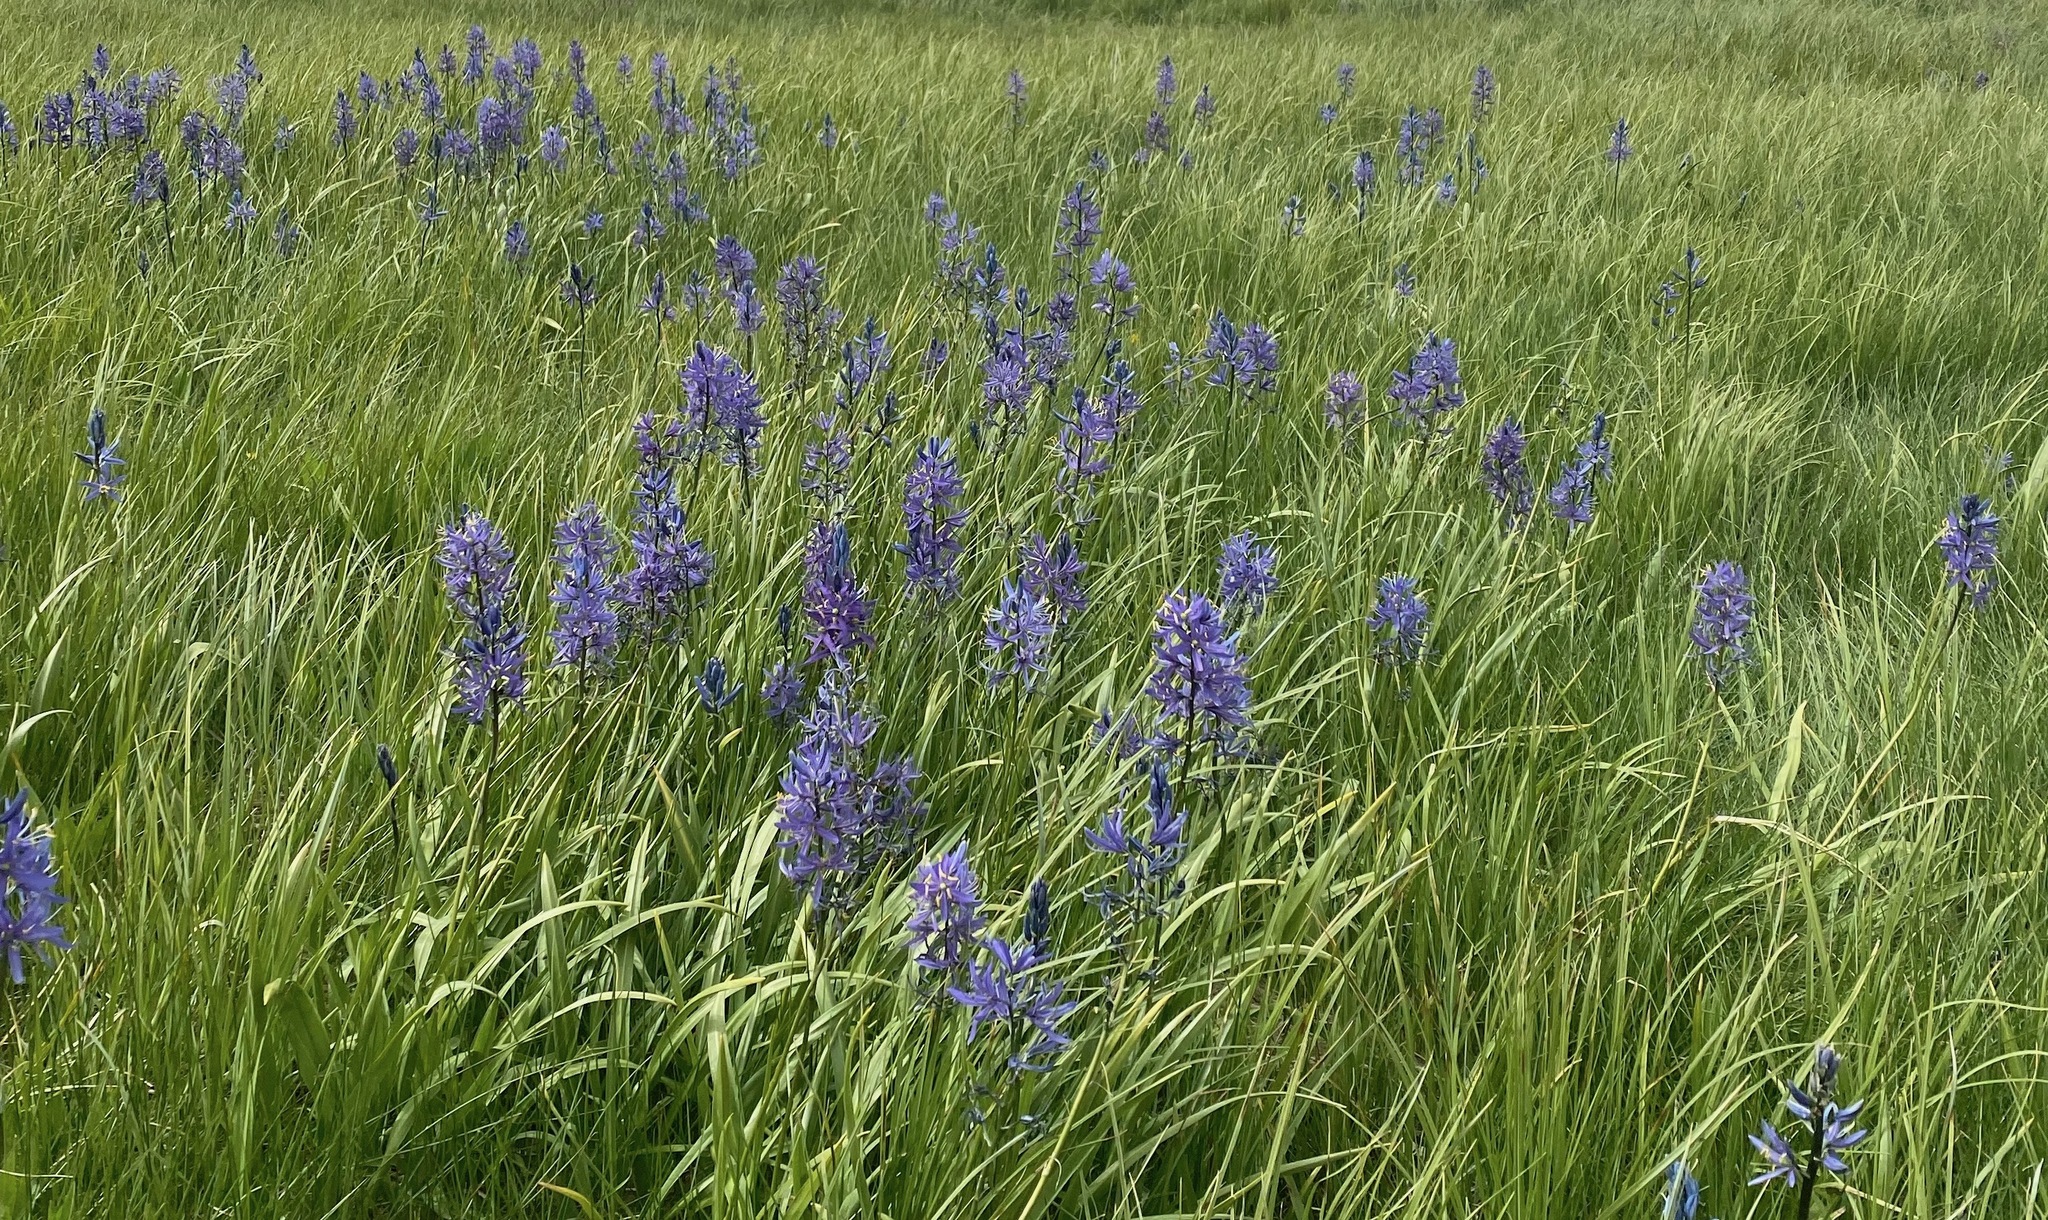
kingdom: Plantae
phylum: Tracheophyta
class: Liliopsida
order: Asparagales
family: Asparagaceae
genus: Camassia
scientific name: Camassia quamash
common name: Common camas
